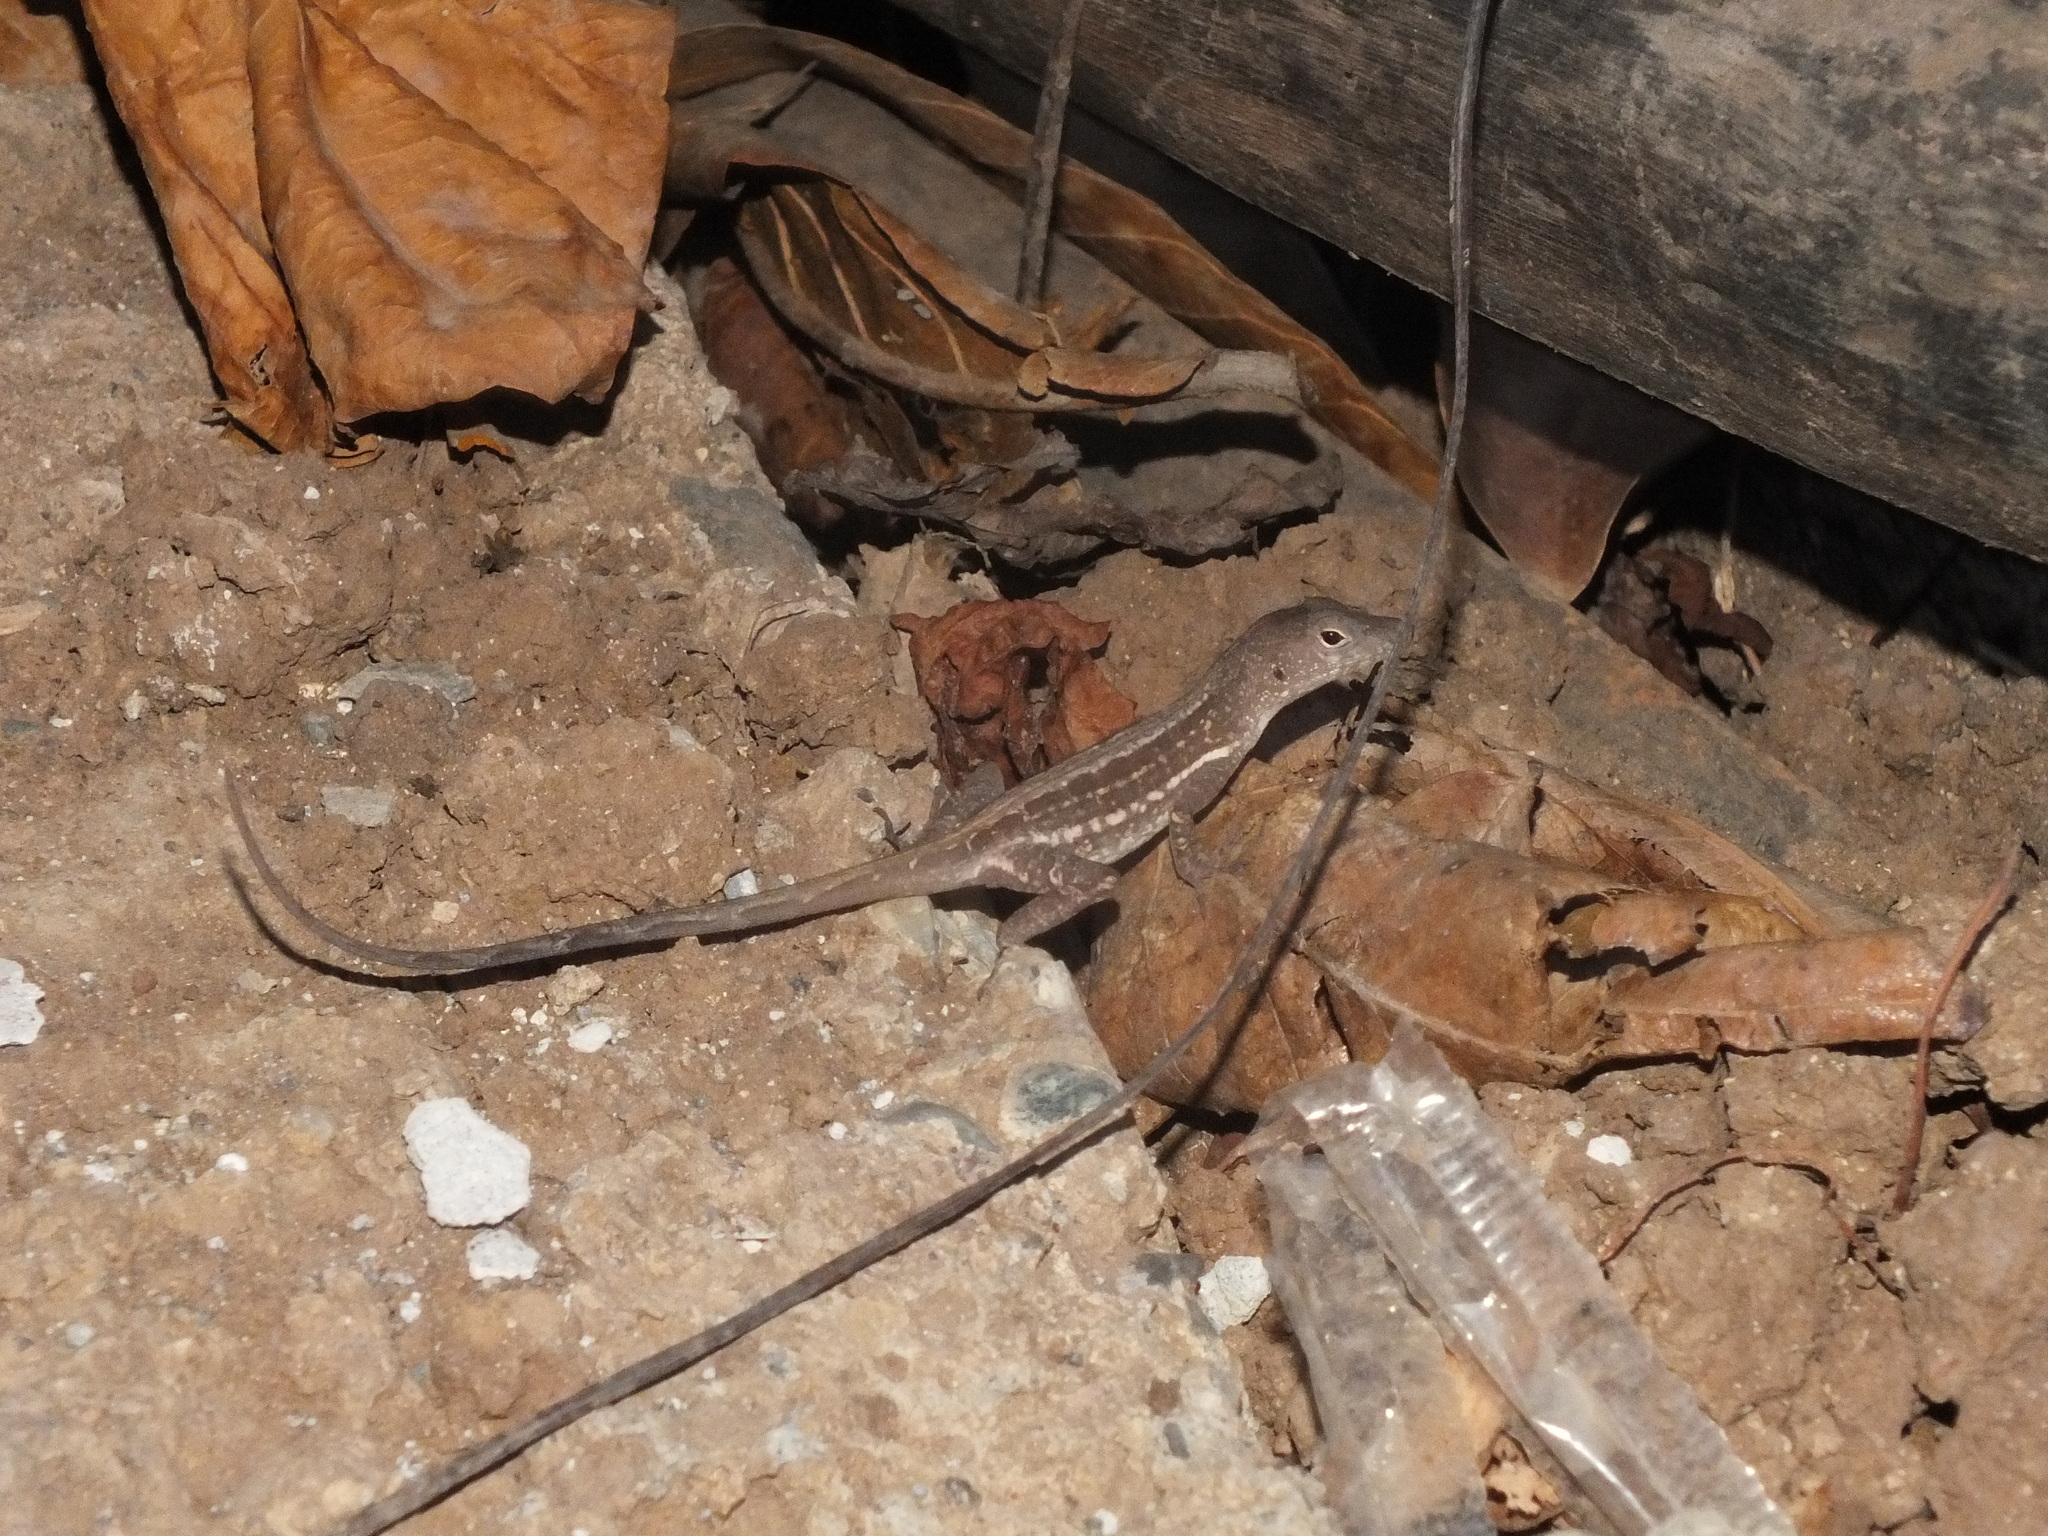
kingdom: Animalia
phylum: Chordata
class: Squamata
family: Dactyloidae
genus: Anolis
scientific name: Anolis lineatopus
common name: Stripefoot anole
